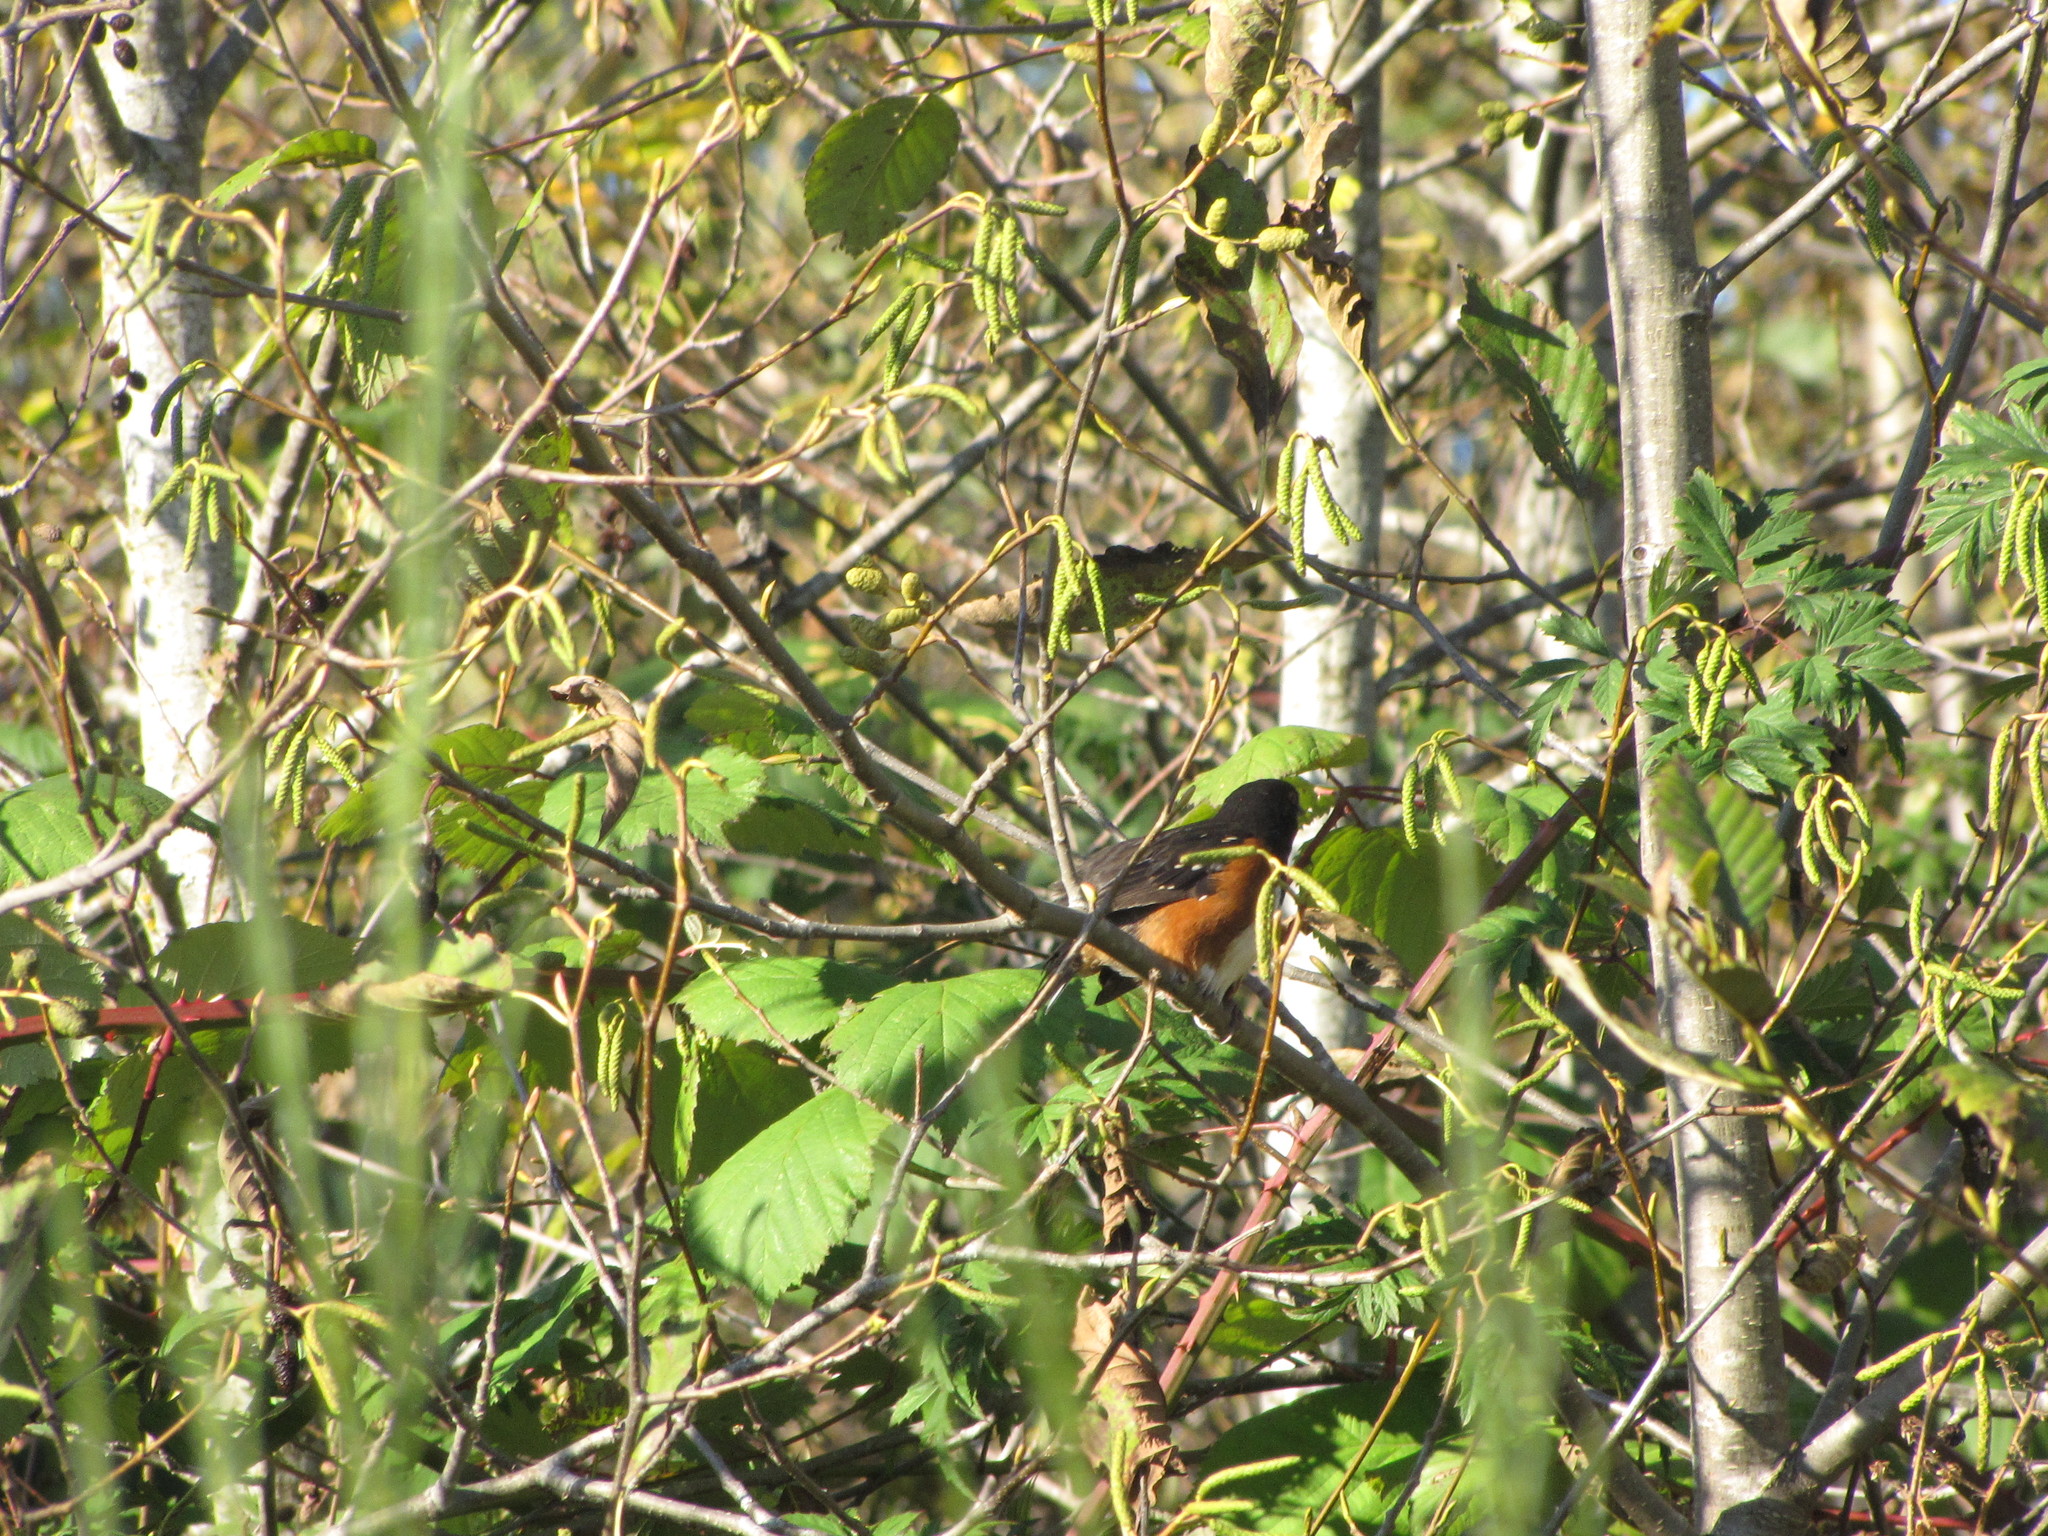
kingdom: Animalia
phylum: Chordata
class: Aves
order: Passeriformes
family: Passerellidae
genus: Pipilo
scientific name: Pipilo maculatus
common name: Spotted towhee
